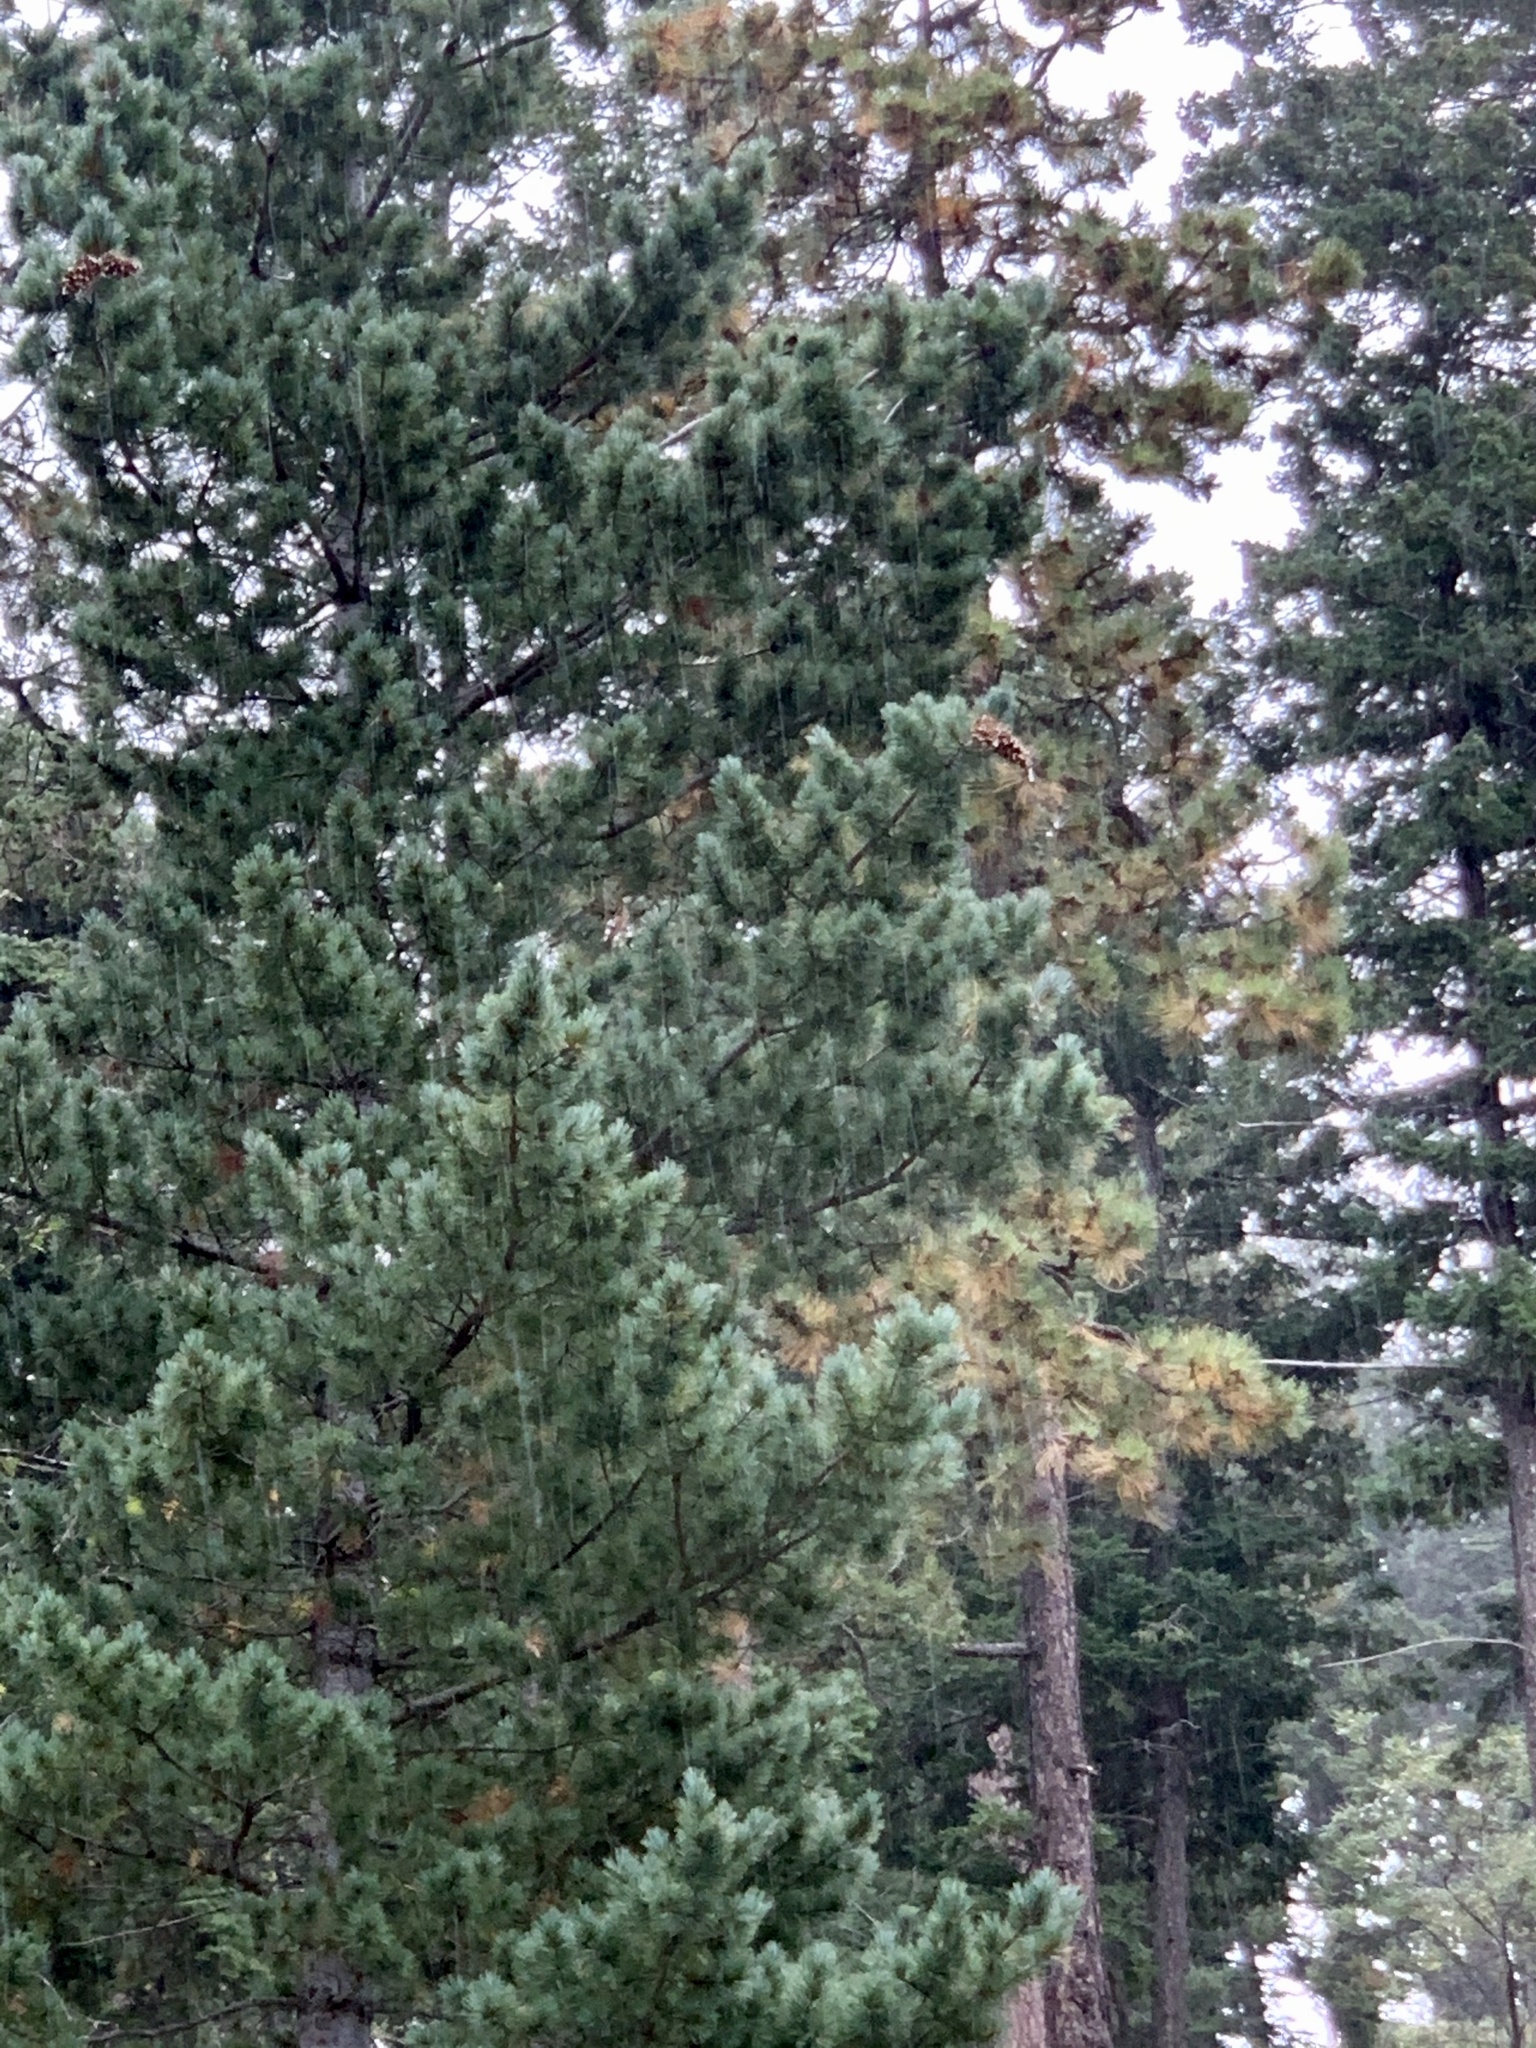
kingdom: Plantae
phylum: Tracheophyta
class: Pinopsida
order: Pinales
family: Pinaceae
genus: Pinus
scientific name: Pinus strobiformis
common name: Southwestern white pine
